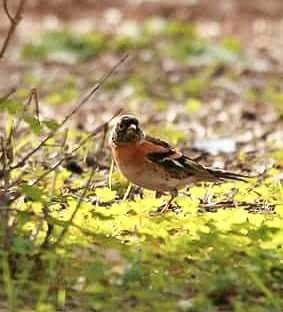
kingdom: Animalia
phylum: Chordata
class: Aves
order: Passeriformes
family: Fringillidae
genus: Fringilla
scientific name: Fringilla montifringilla
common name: Brambling
